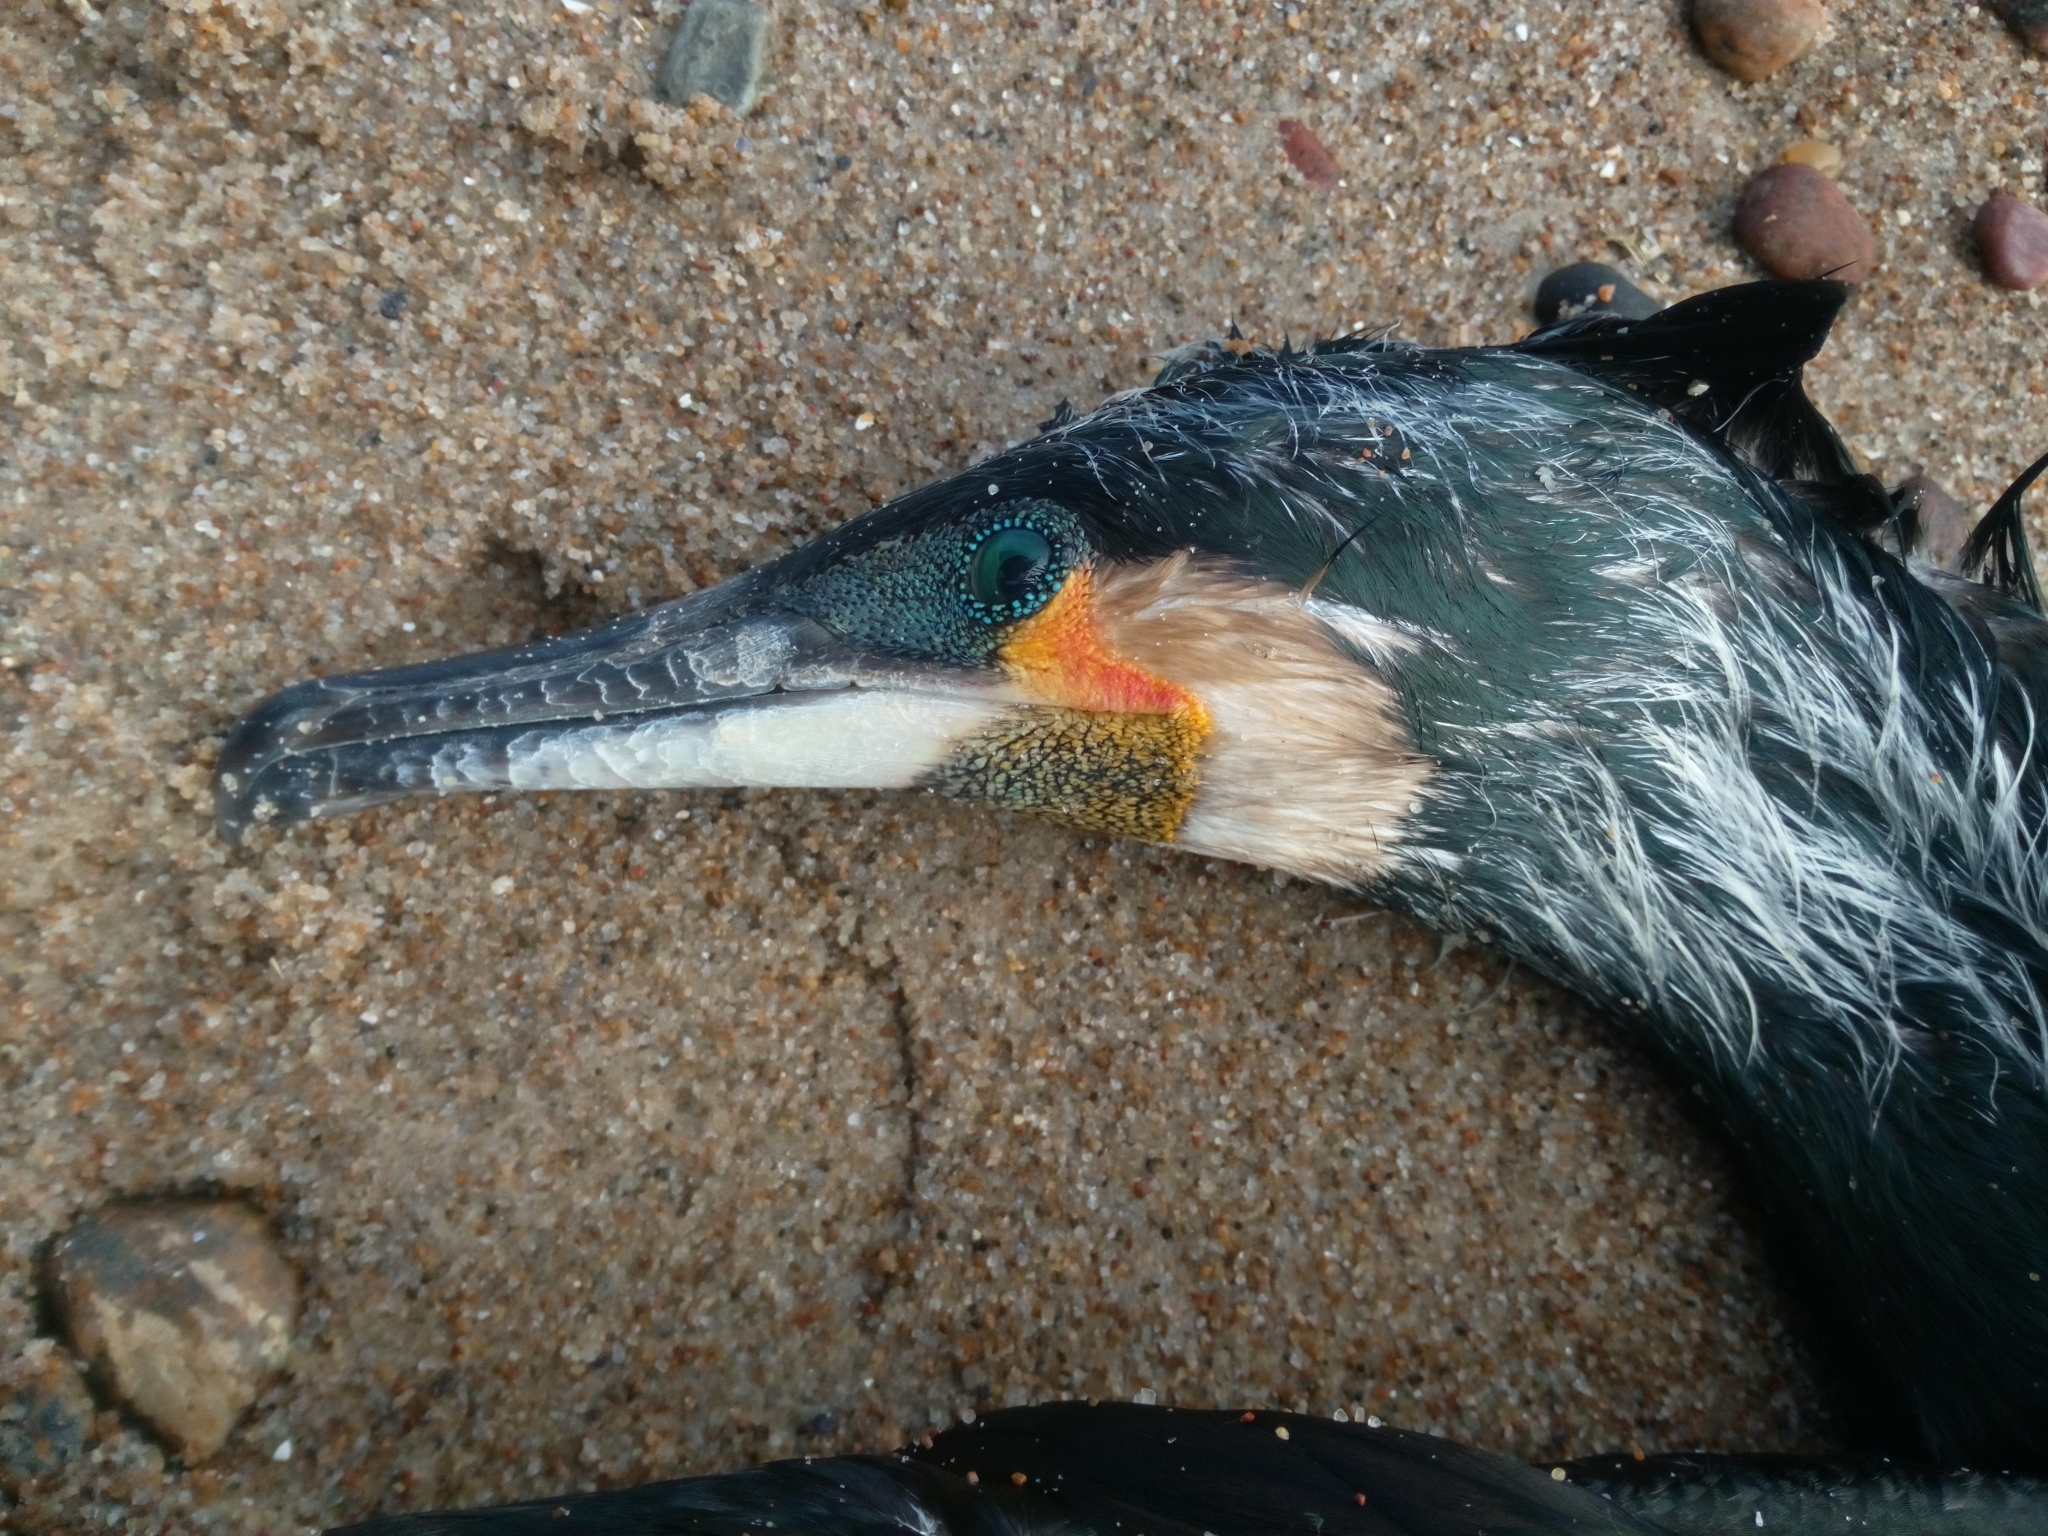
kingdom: Animalia
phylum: Chordata
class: Aves
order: Suliformes
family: Phalacrocoracidae
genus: Phalacrocorax
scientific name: Phalacrocorax carbo
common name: Great cormorant
